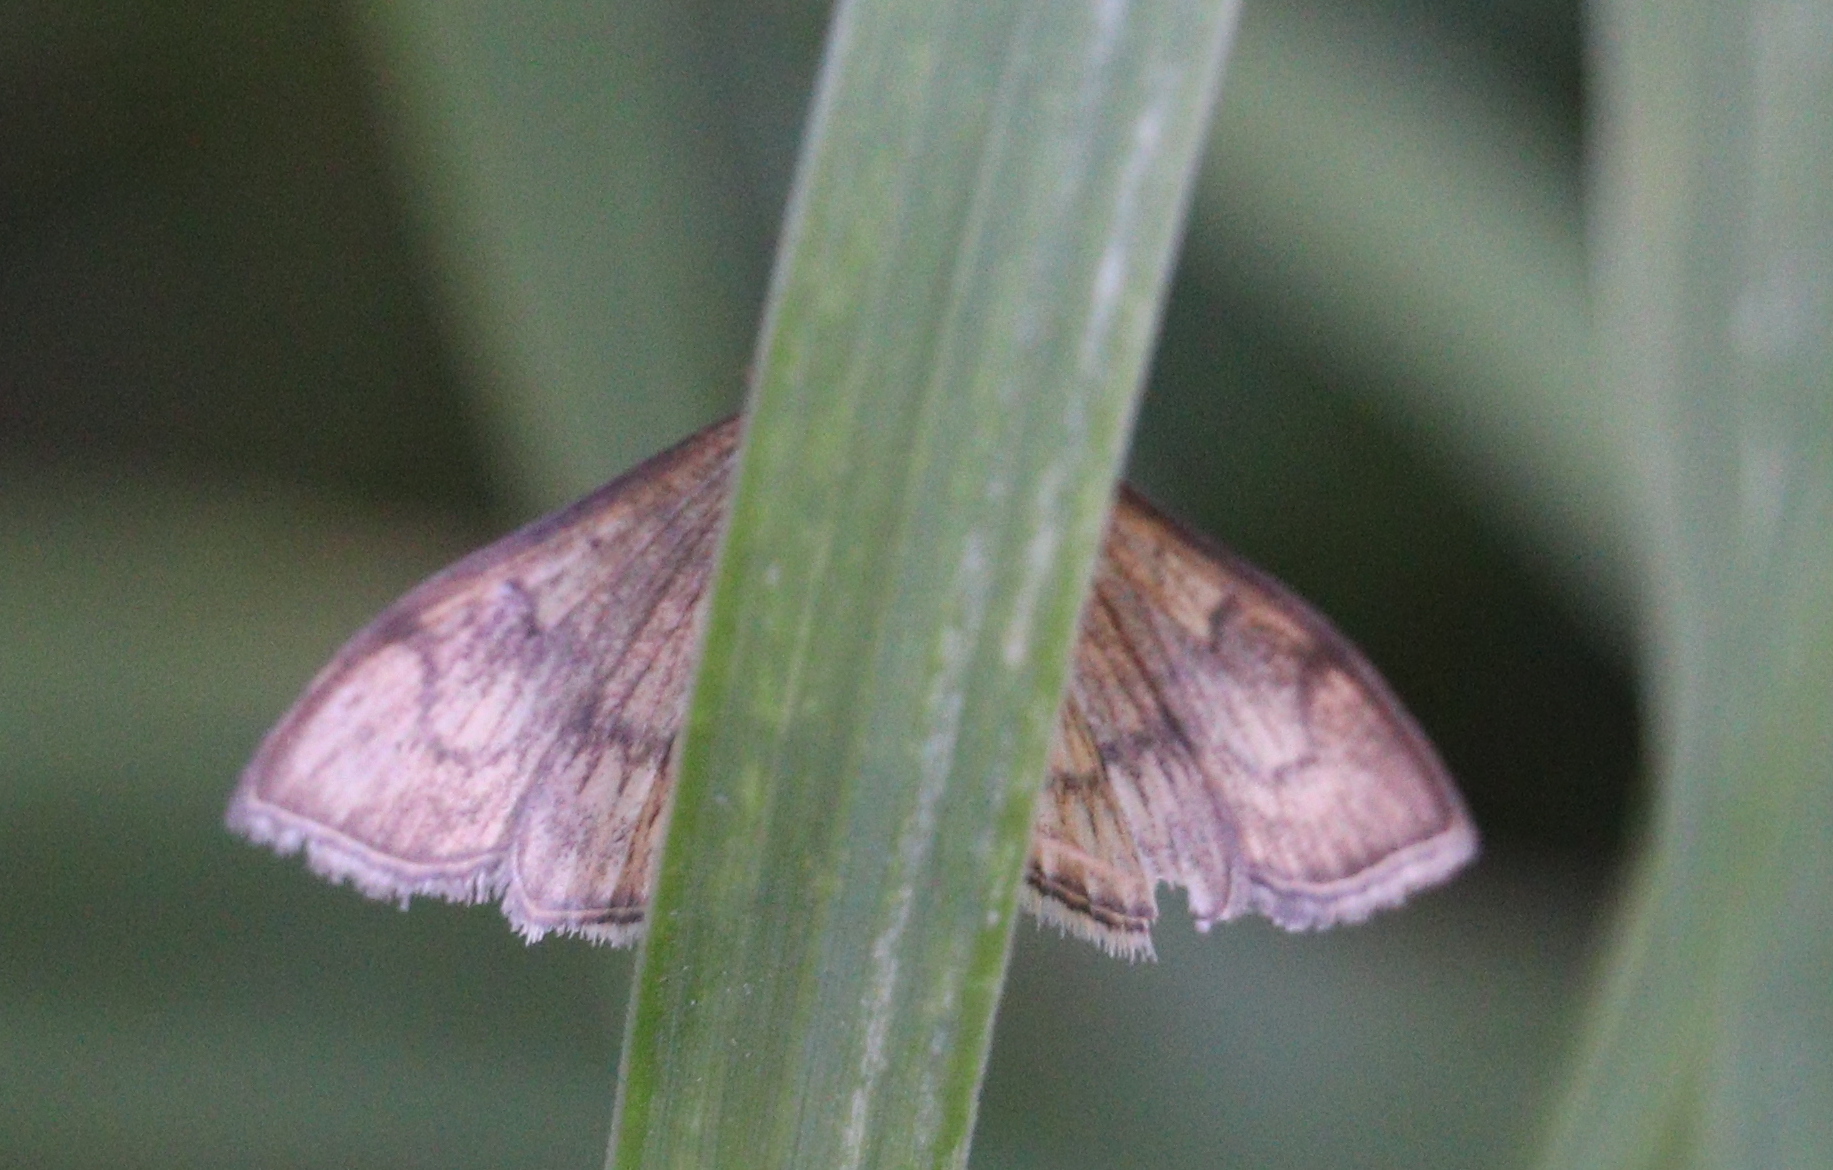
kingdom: Animalia
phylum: Arthropoda
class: Insecta
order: Lepidoptera
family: Crambidae
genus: Anania
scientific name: Anania verbascalis
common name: Golden pearl
